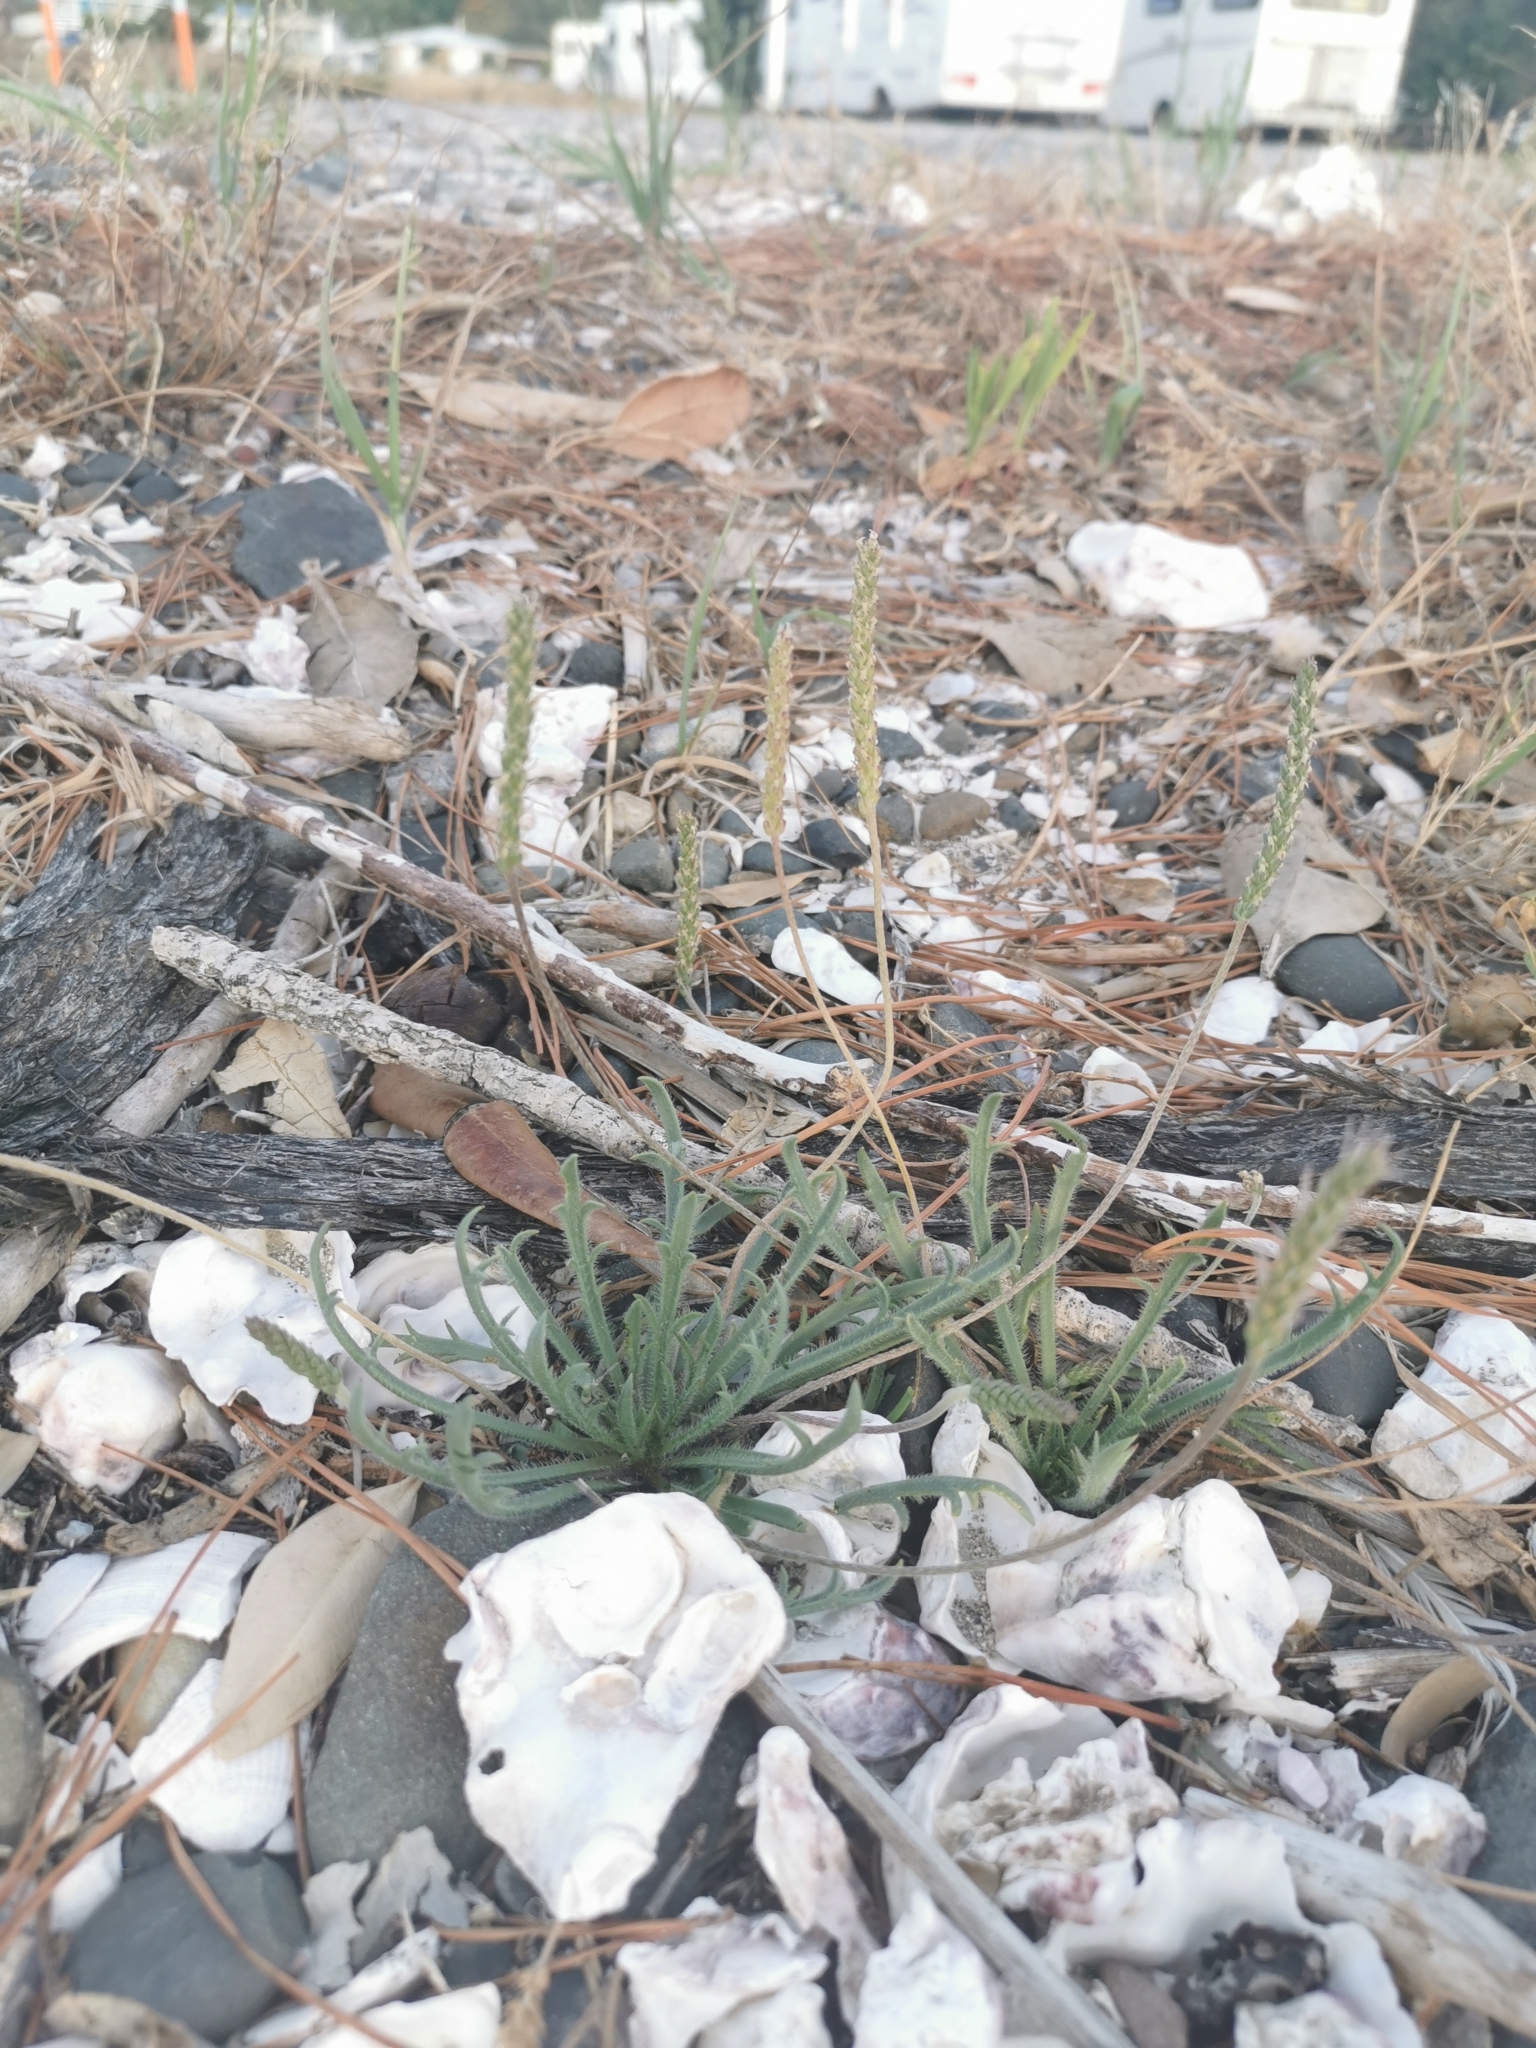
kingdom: Plantae
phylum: Tracheophyta
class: Magnoliopsida
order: Lamiales
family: Plantaginaceae
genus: Plantago
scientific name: Plantago coronopus
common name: Buck's-horn plantain
